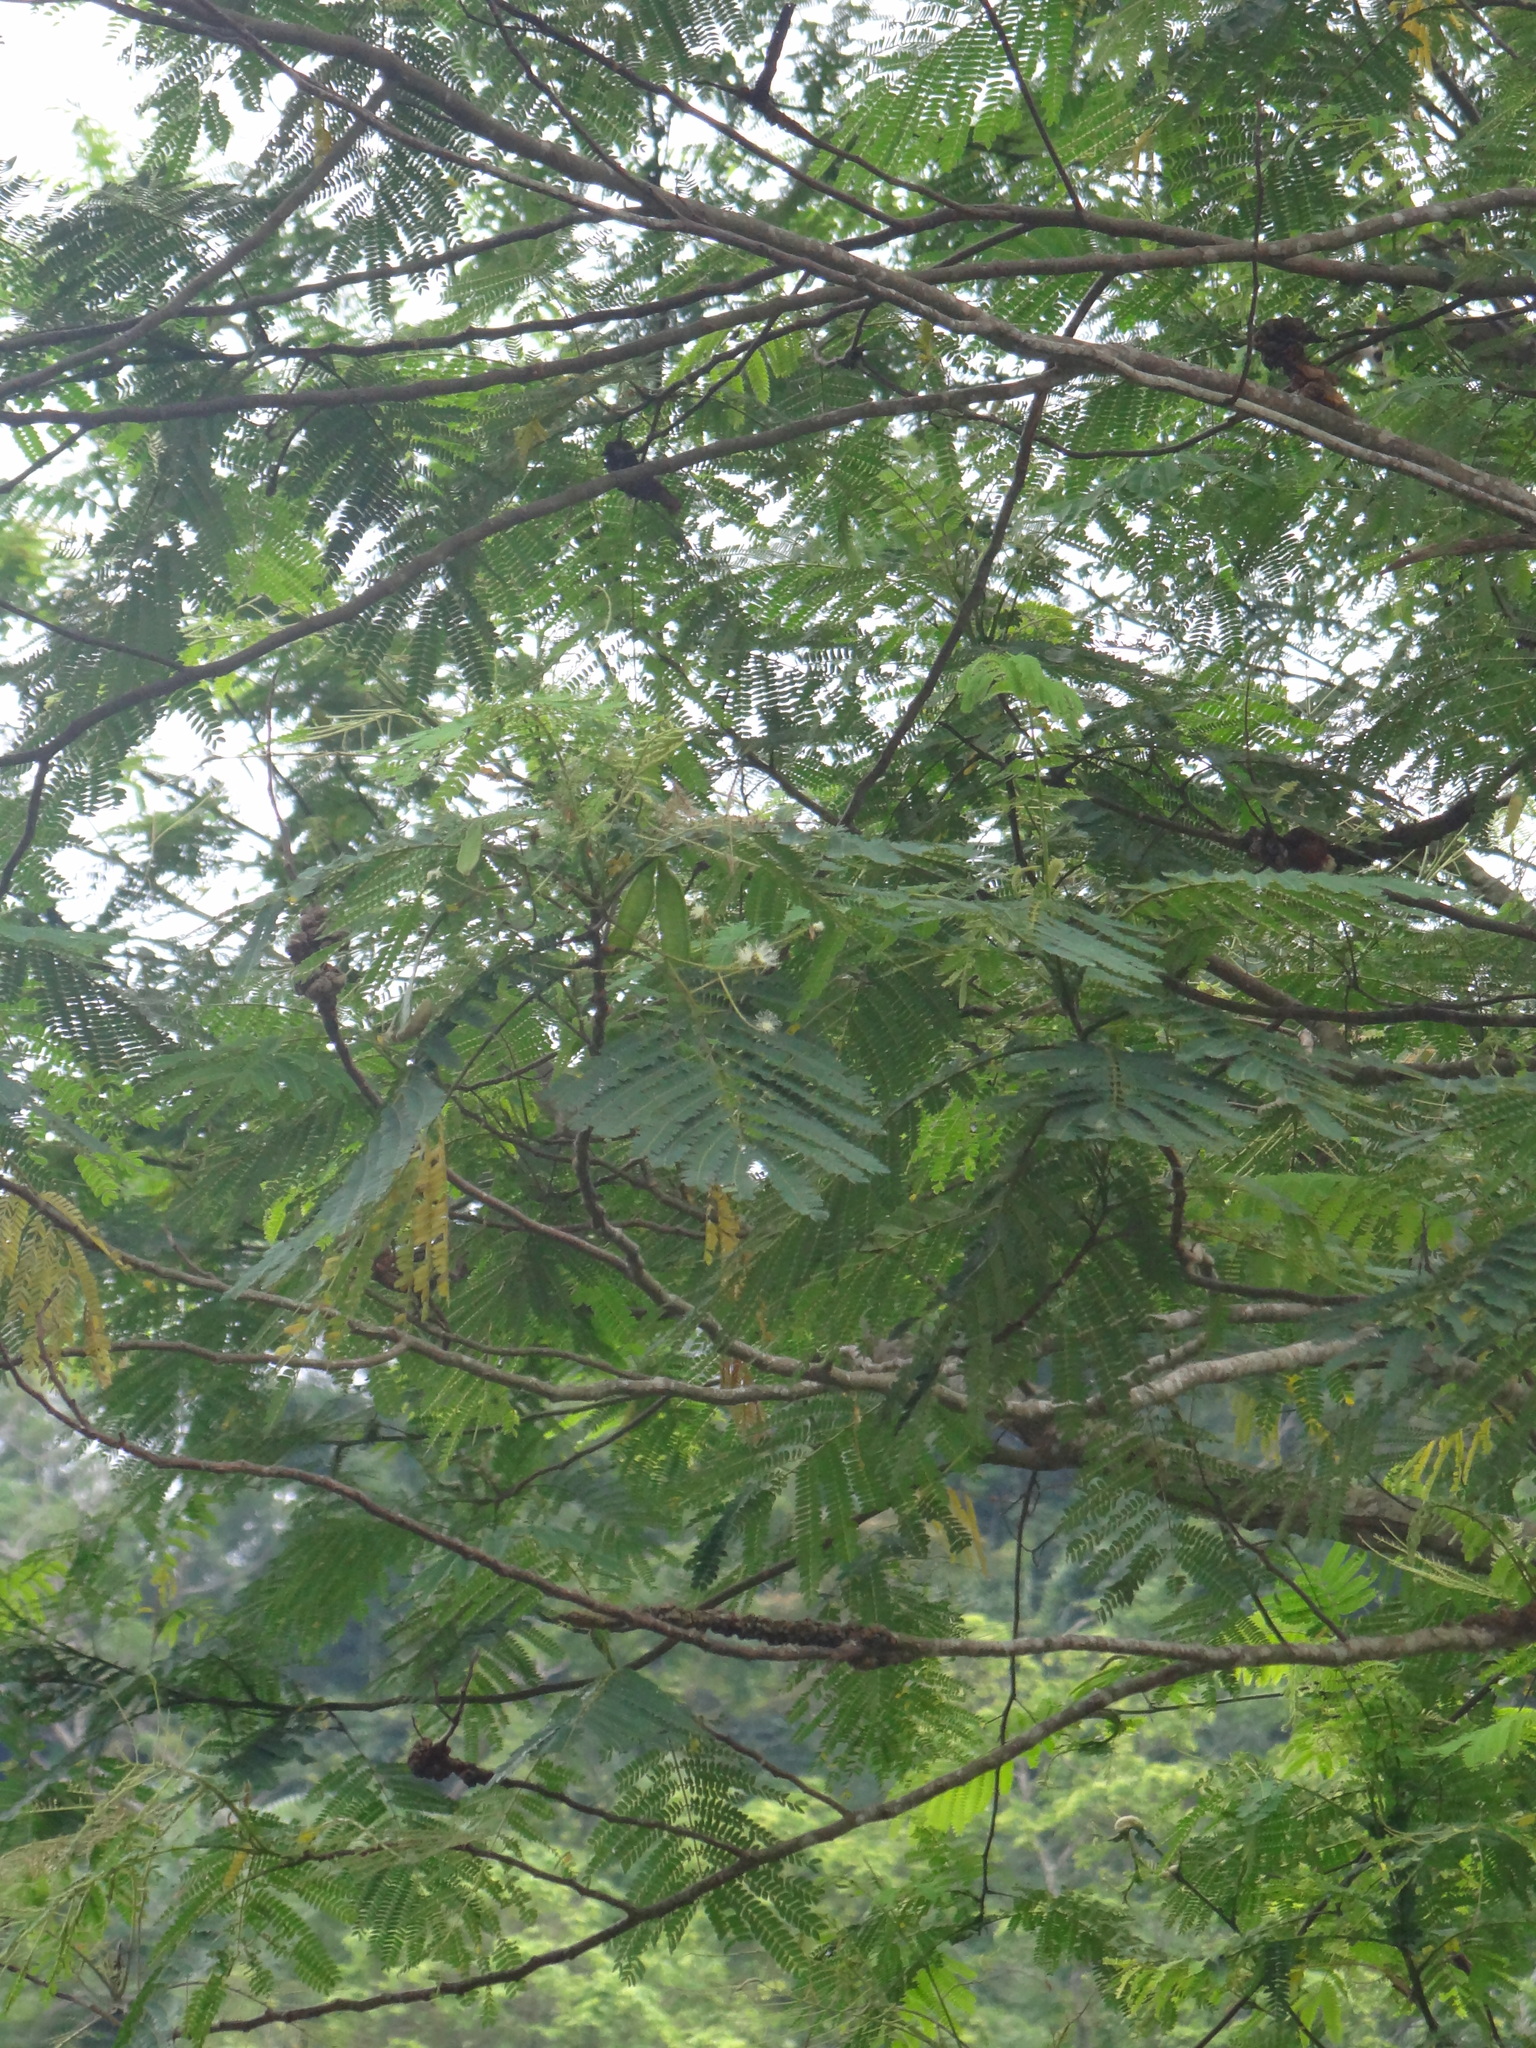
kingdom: Plantae
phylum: Tracheophyta
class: Magnoliopsida
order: Fabales
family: Fabaceae
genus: Falcataria
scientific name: Falcataria falcata
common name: Moluccan albizia
